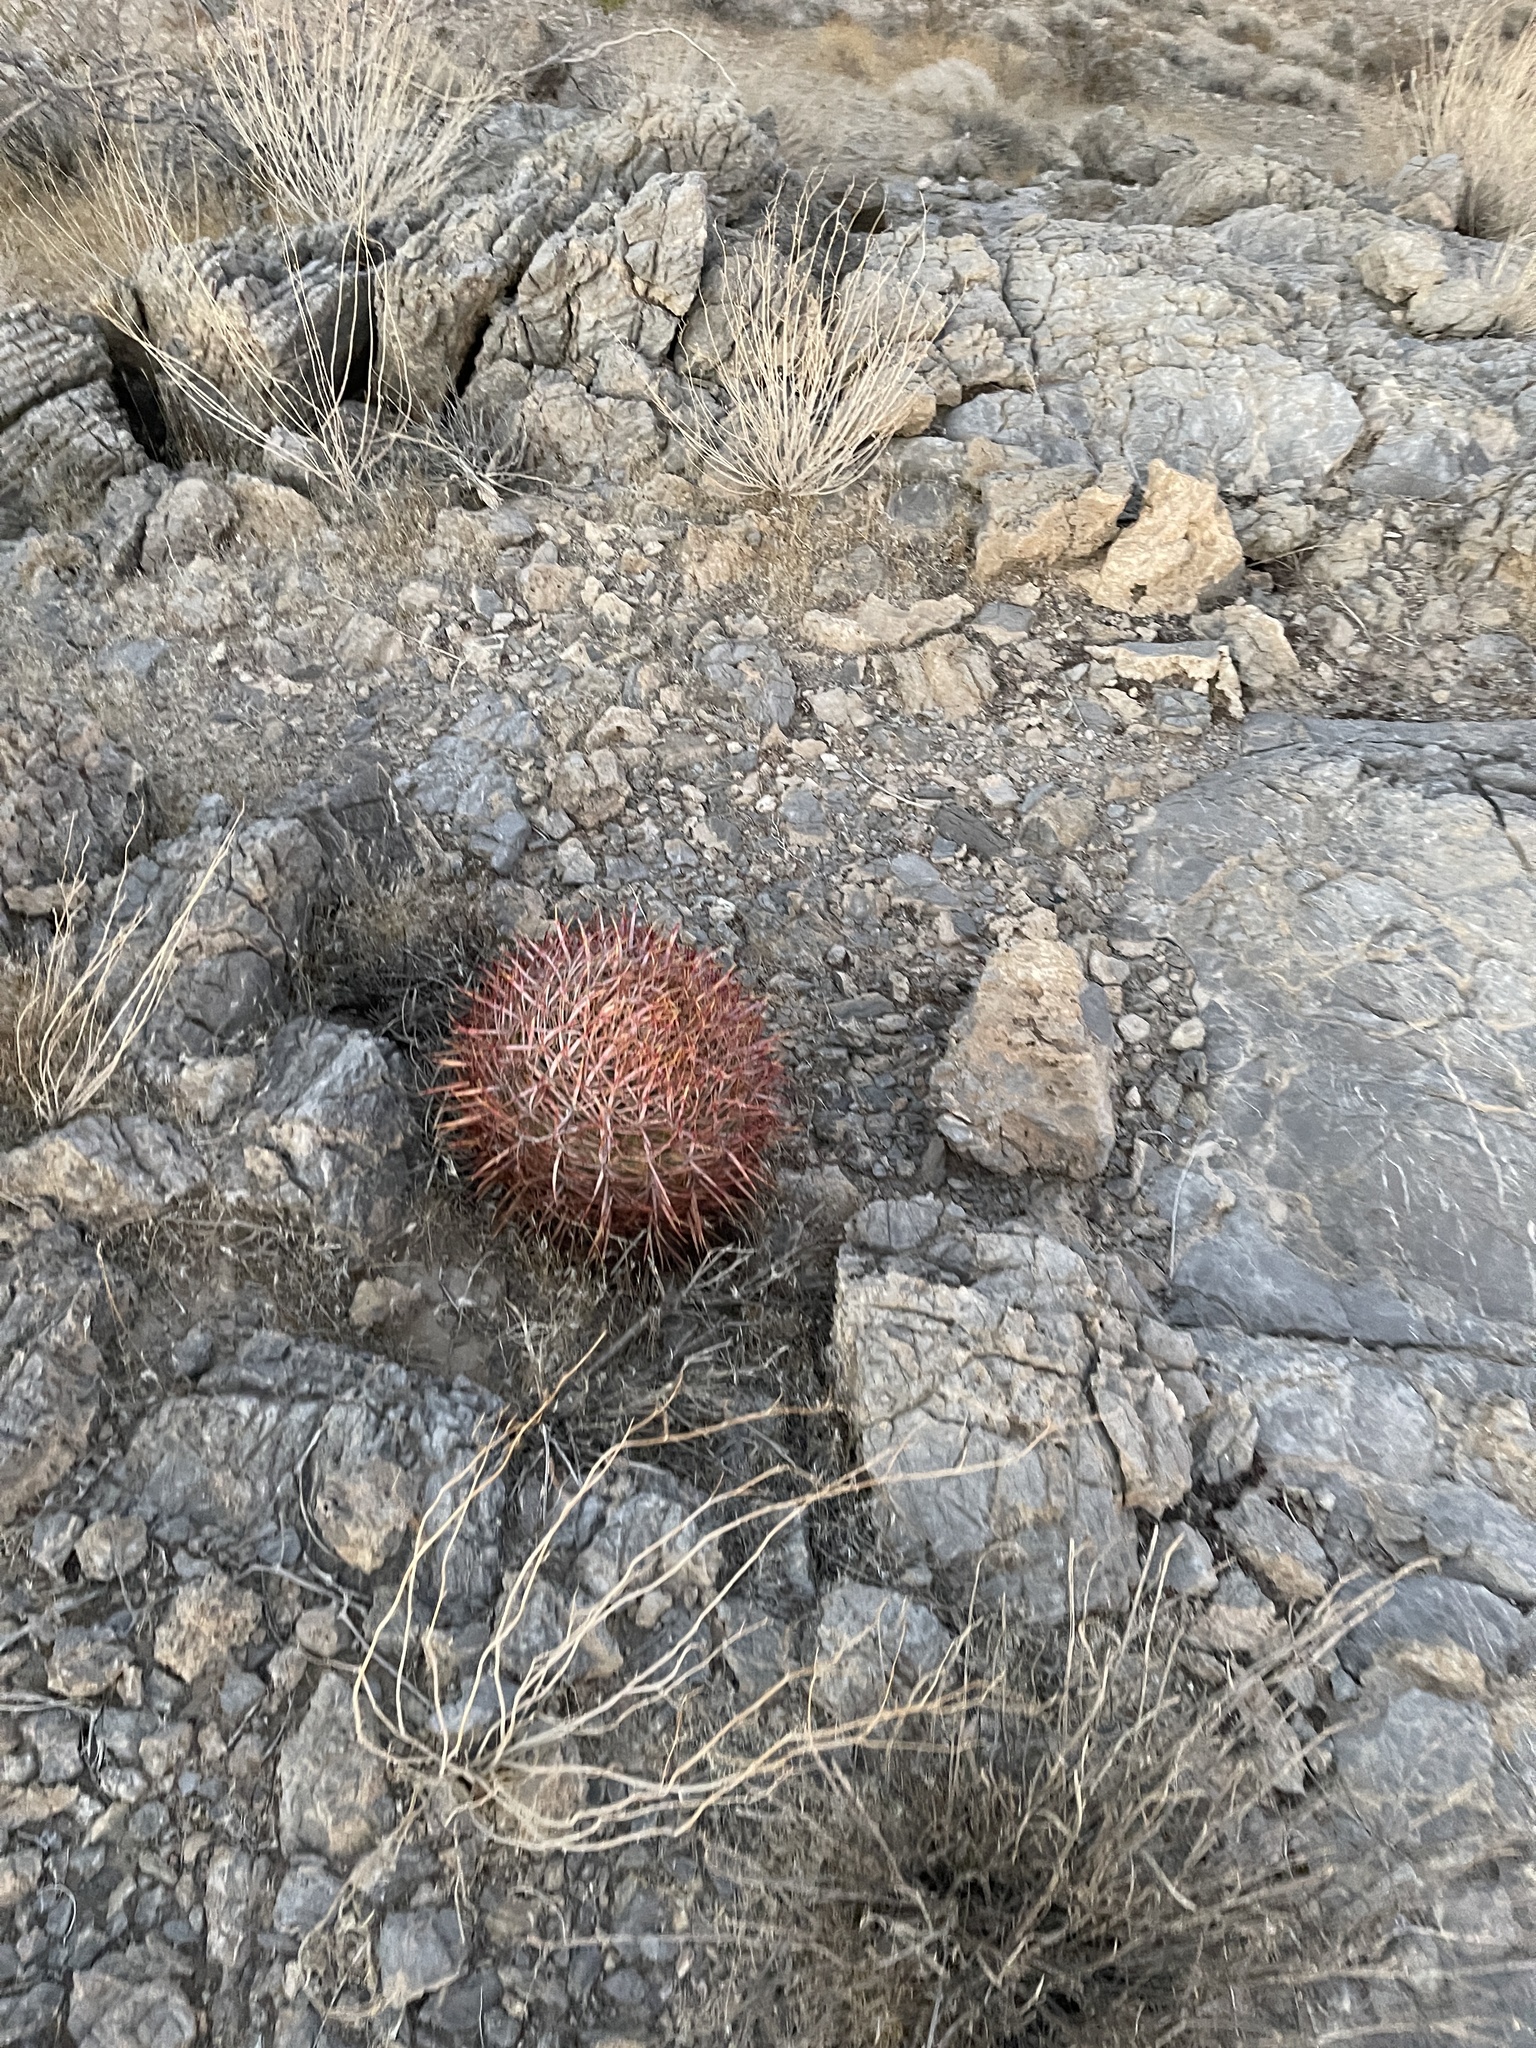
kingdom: Plantae
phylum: Tracheophyta
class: Magnoliopsida
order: Caryophyllales
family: Cactaceae
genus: Ferocactus
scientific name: Ferocactus cylindraceus
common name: California barrel cactus
